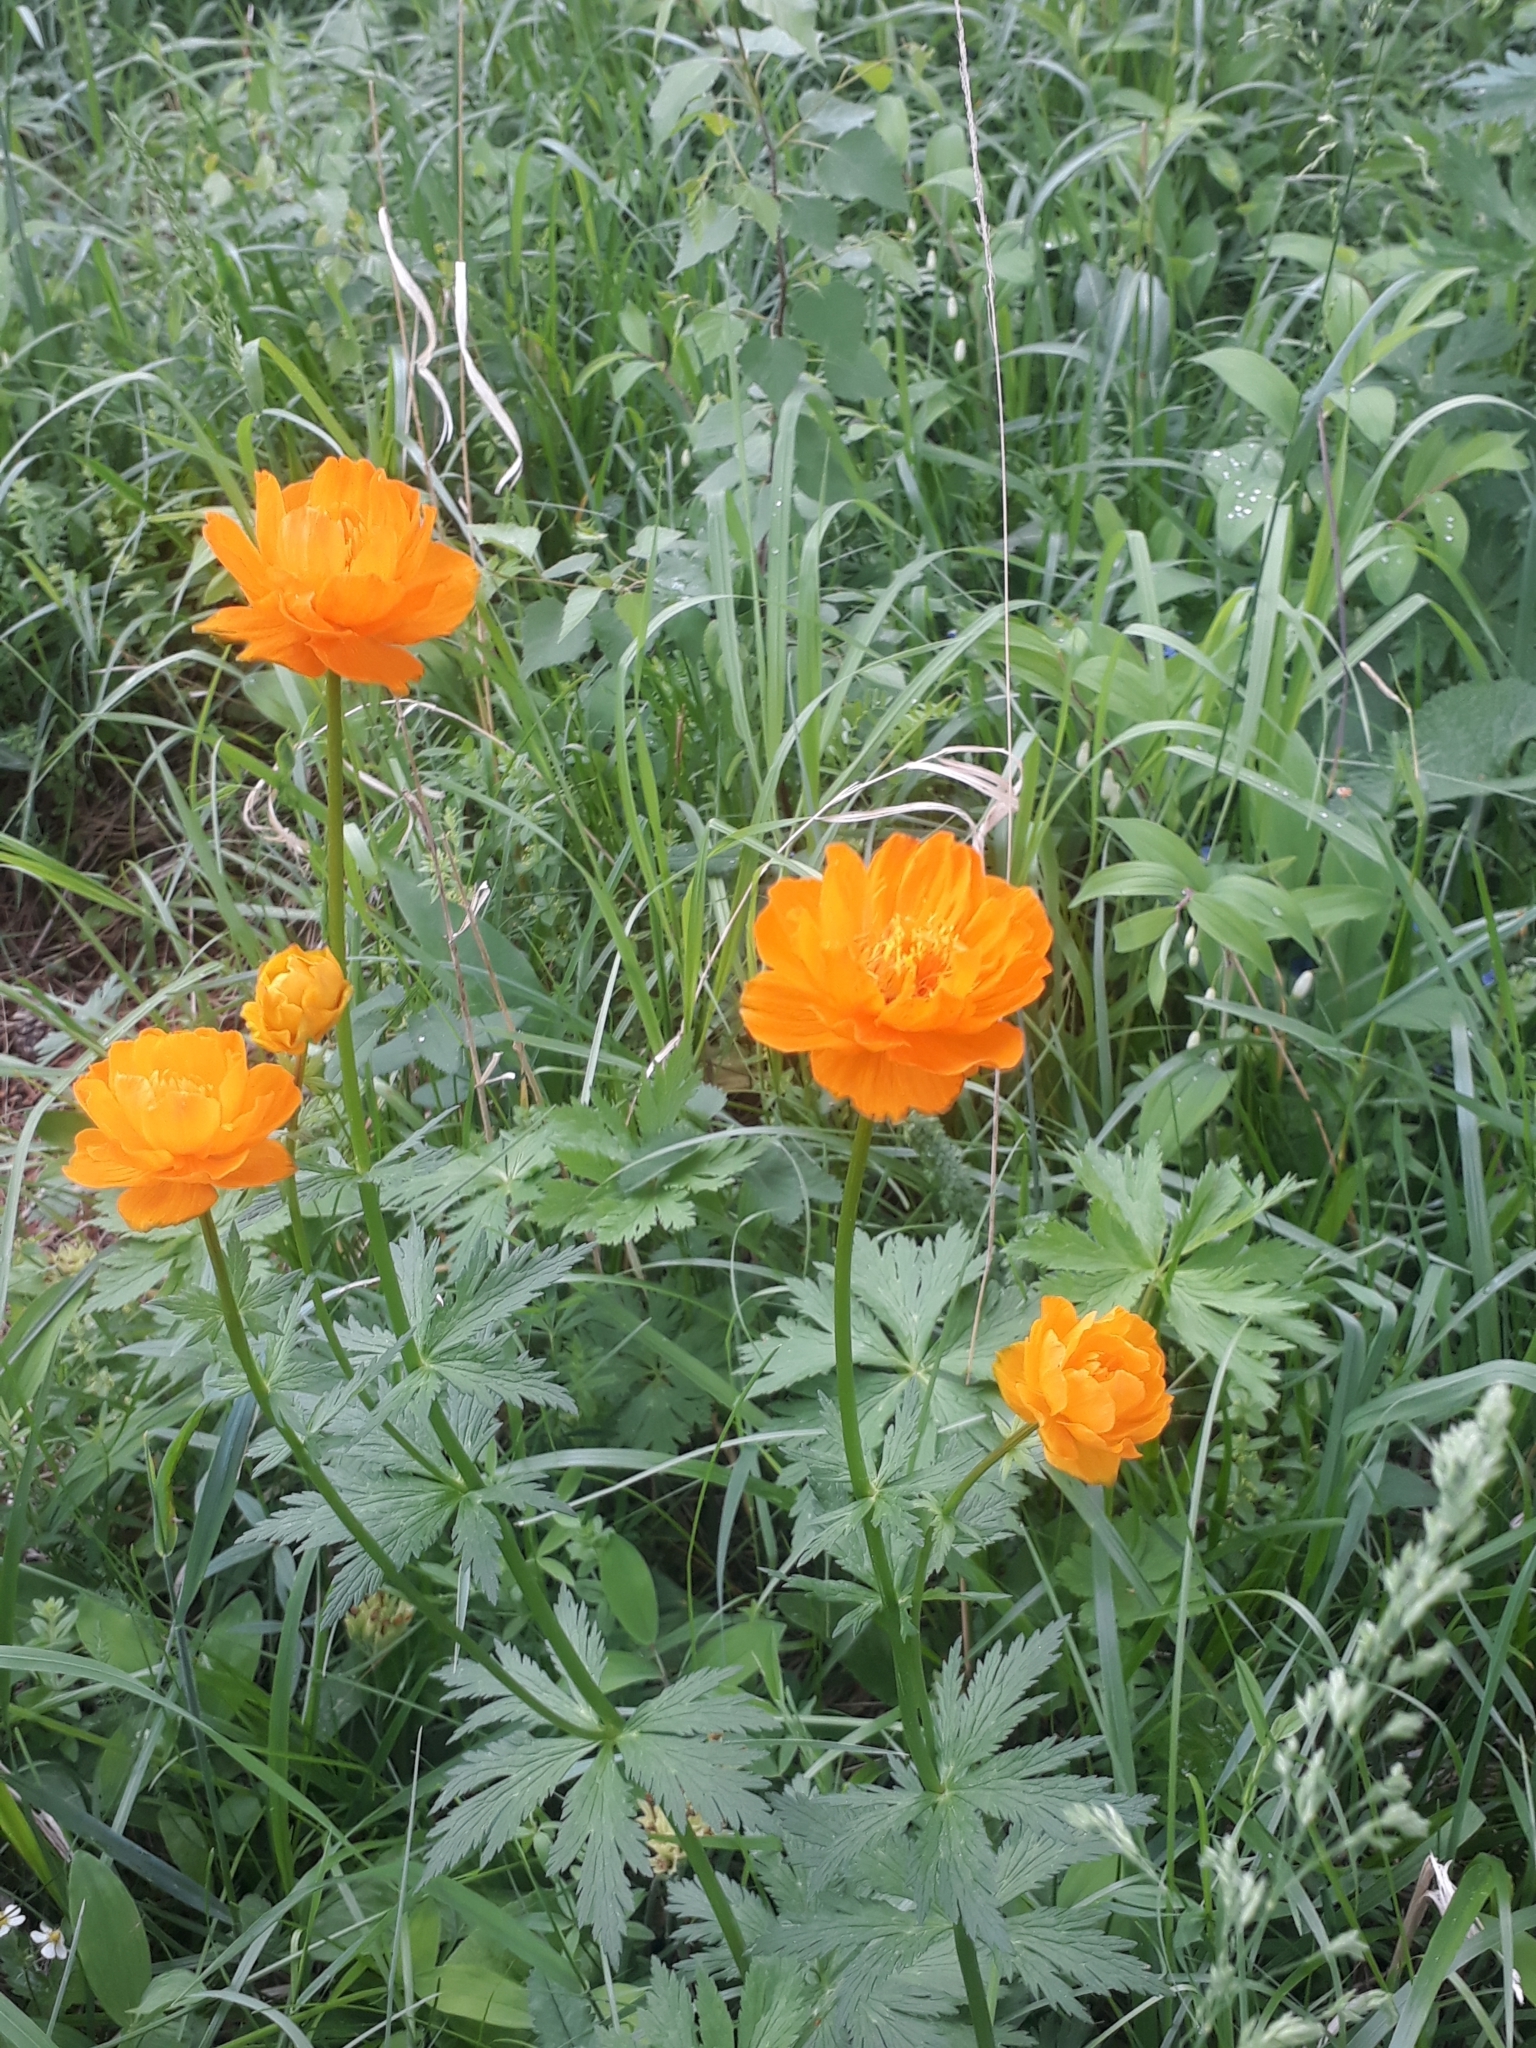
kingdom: Plantae
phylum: Tracheophyta
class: Magnoliopsida
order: Ranunculales
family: Ranunculaceae
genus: Trollius
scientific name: Trollius altaicus
